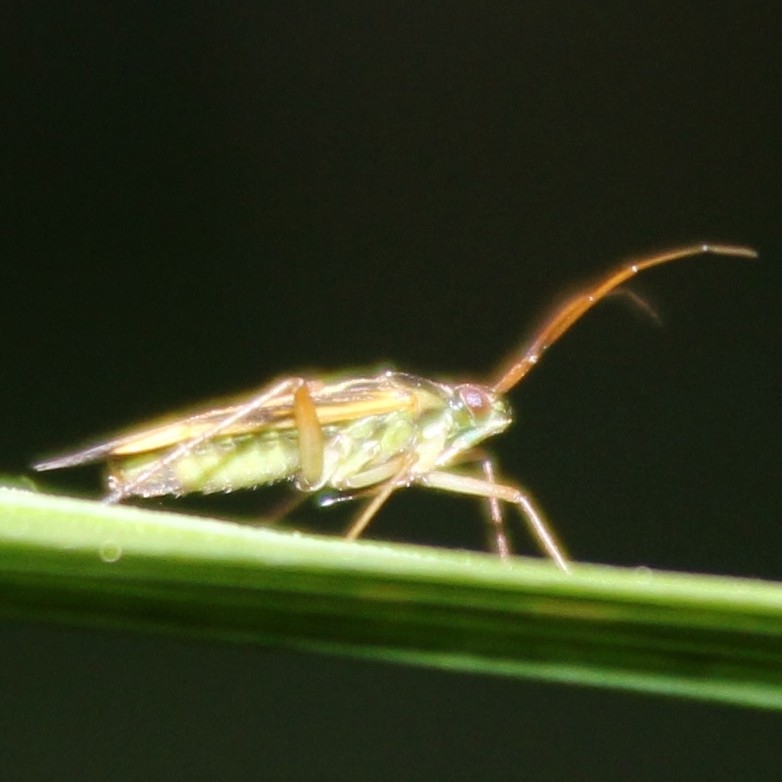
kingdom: Animalia
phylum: Arthropoda
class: Insecta
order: Hemiptera
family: Miridae
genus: Stenotus
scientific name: Stenotus binotatus
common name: Plant bug
